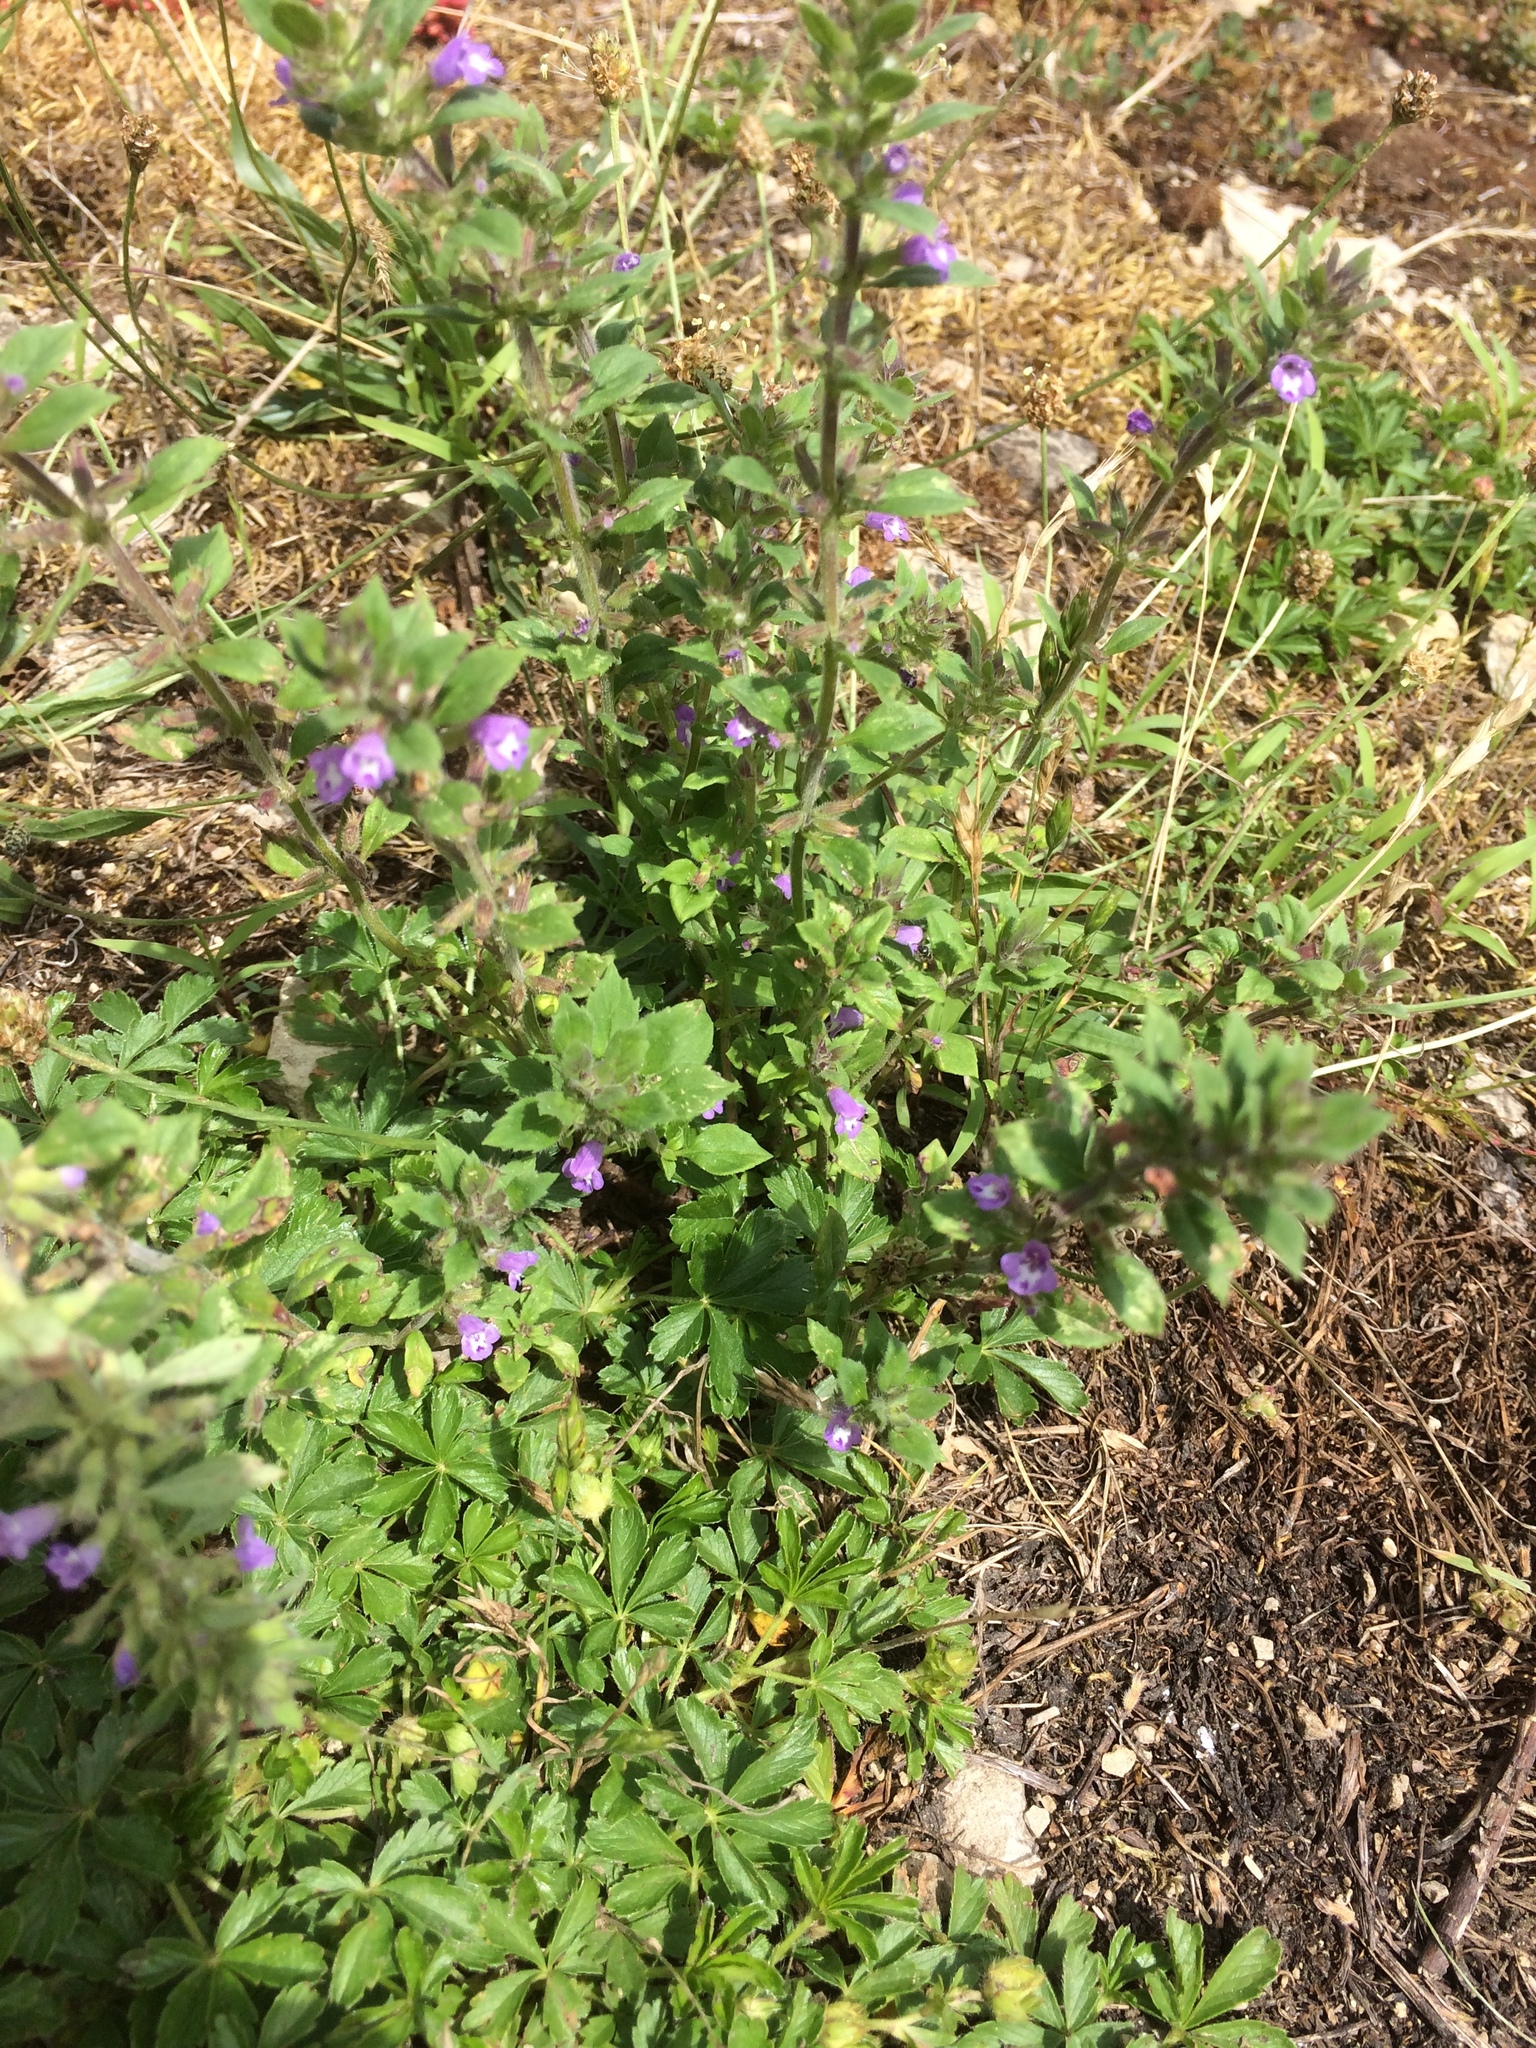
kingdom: Plantae
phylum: Tracheophyta
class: Magnoliopsida
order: Lamiales
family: Lamiaceae
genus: Clinopodium
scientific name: Clinopodium acinos
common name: Basil thyme
